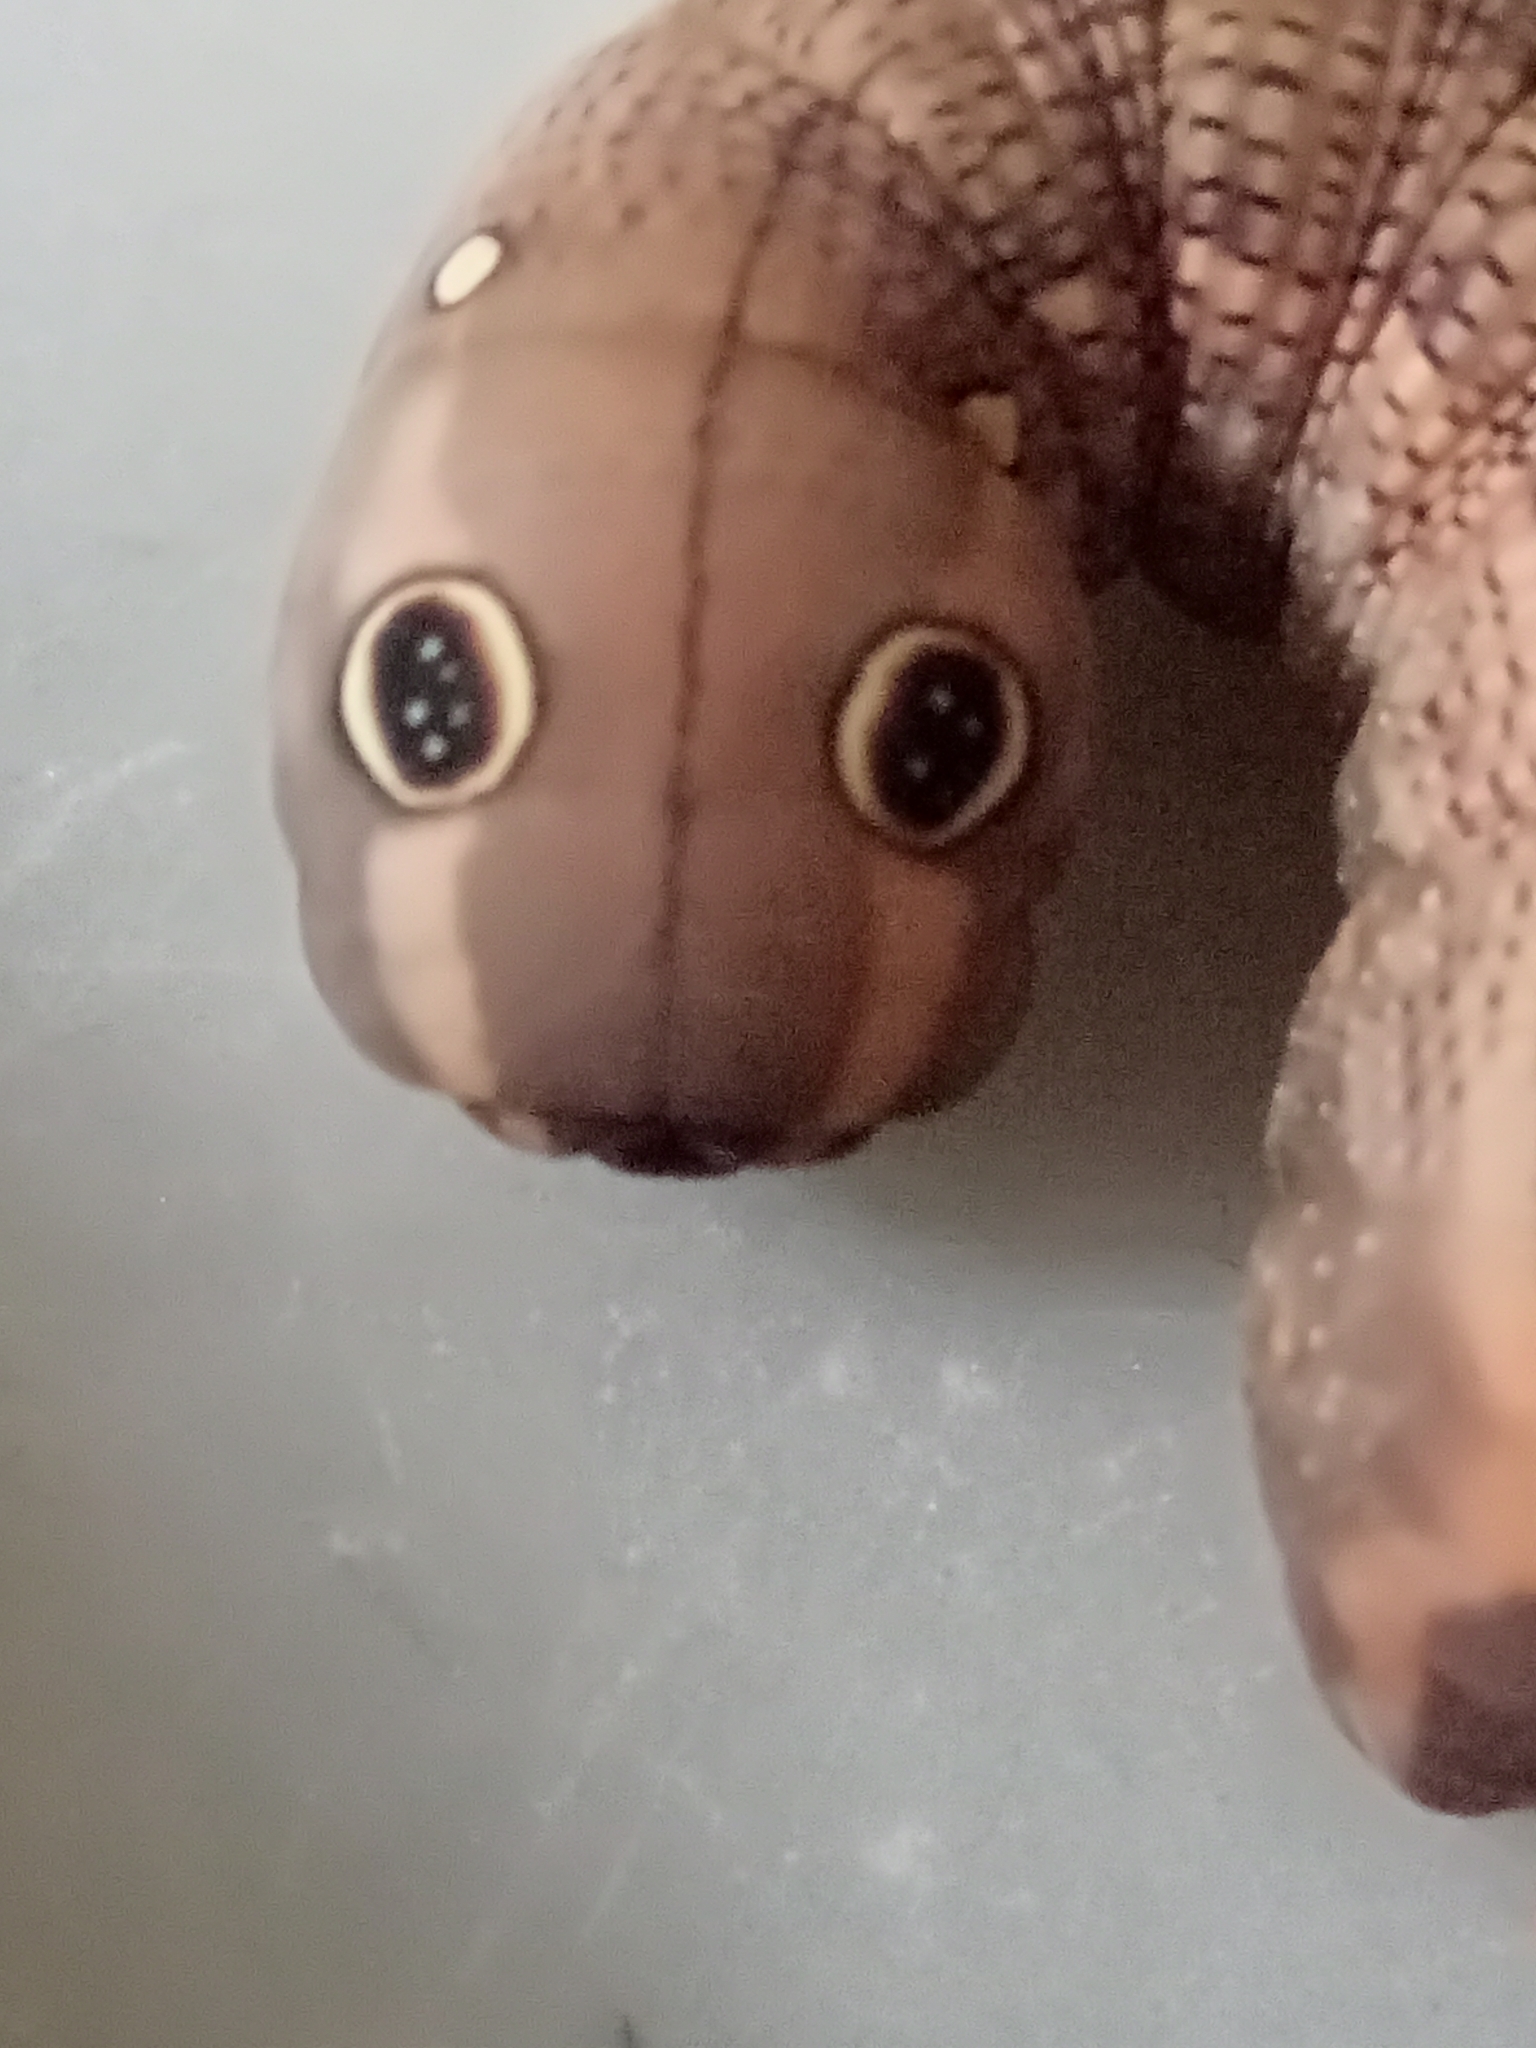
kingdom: Animalia
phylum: Arthropoda
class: Insecta
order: Lepidoptera
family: Sphingidae
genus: Hippotion
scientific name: Hippotion celerio
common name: Silver-striped hawk-moth
